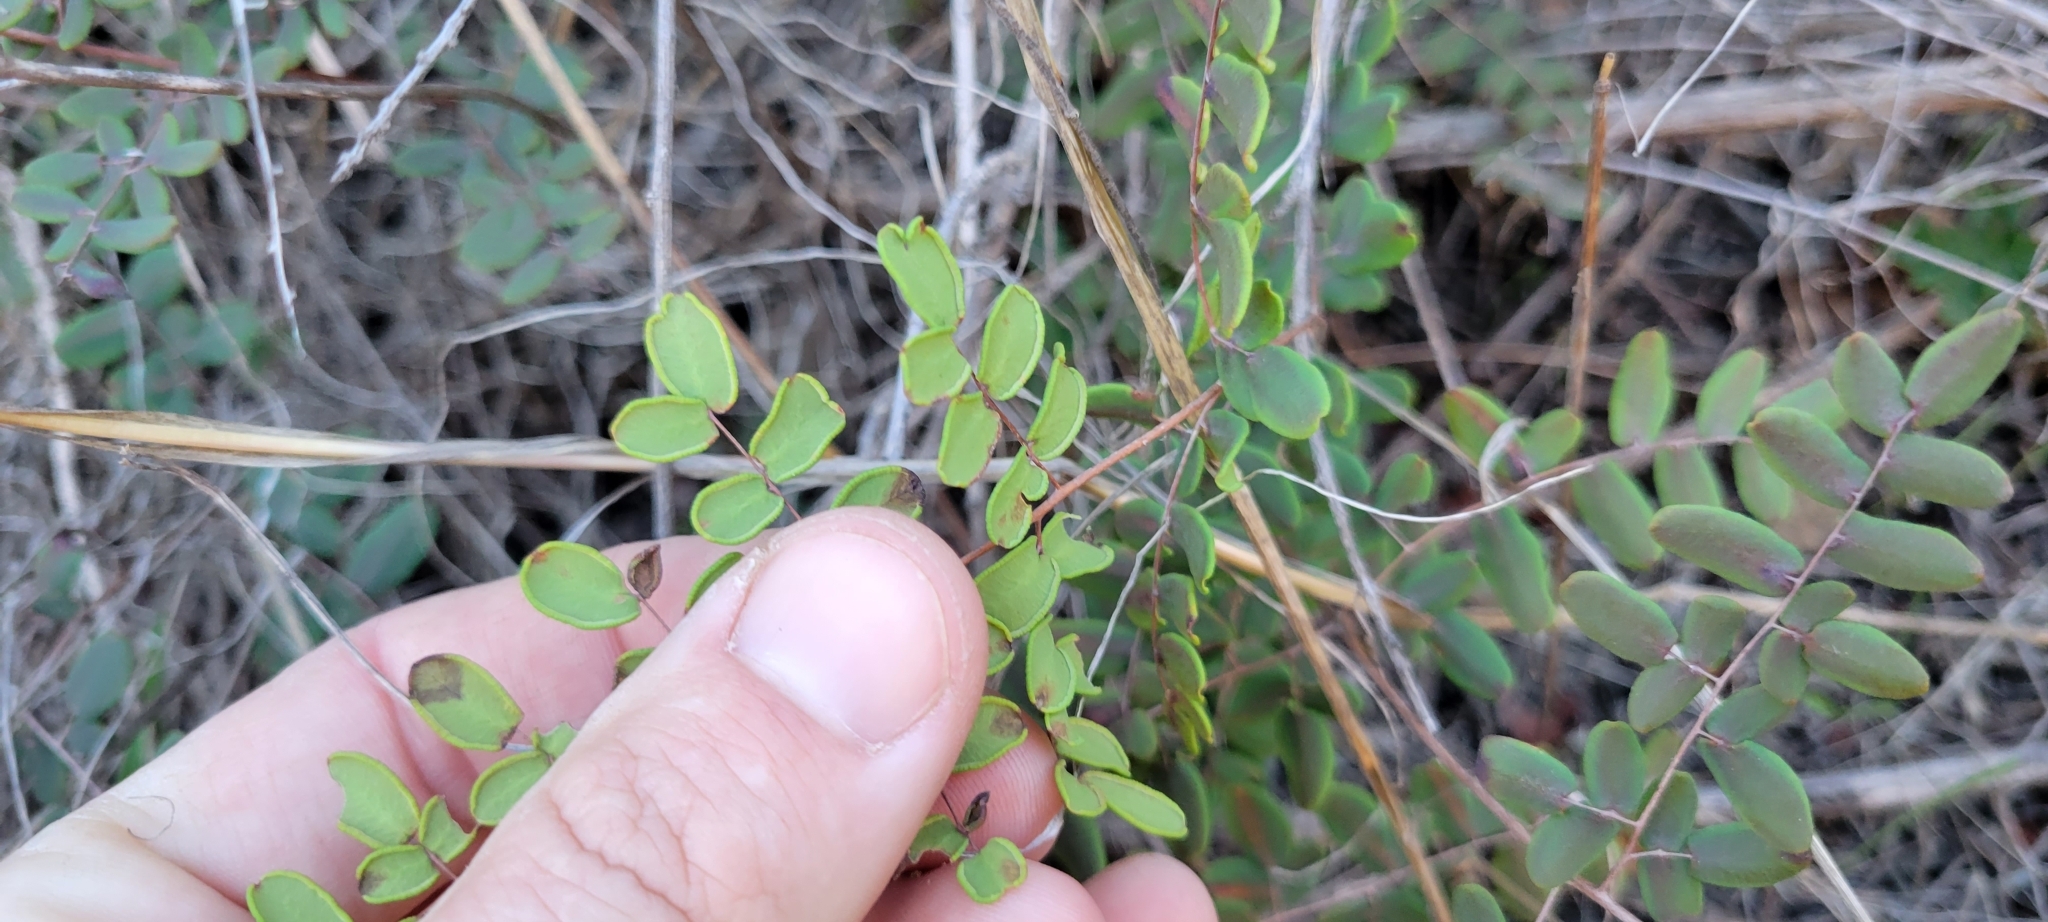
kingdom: Plantae
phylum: Tracheophyta
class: Polypodiopsida
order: Polypodiales
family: Pteridaceae
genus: Pellaea
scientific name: Pellaea andromedifolia
